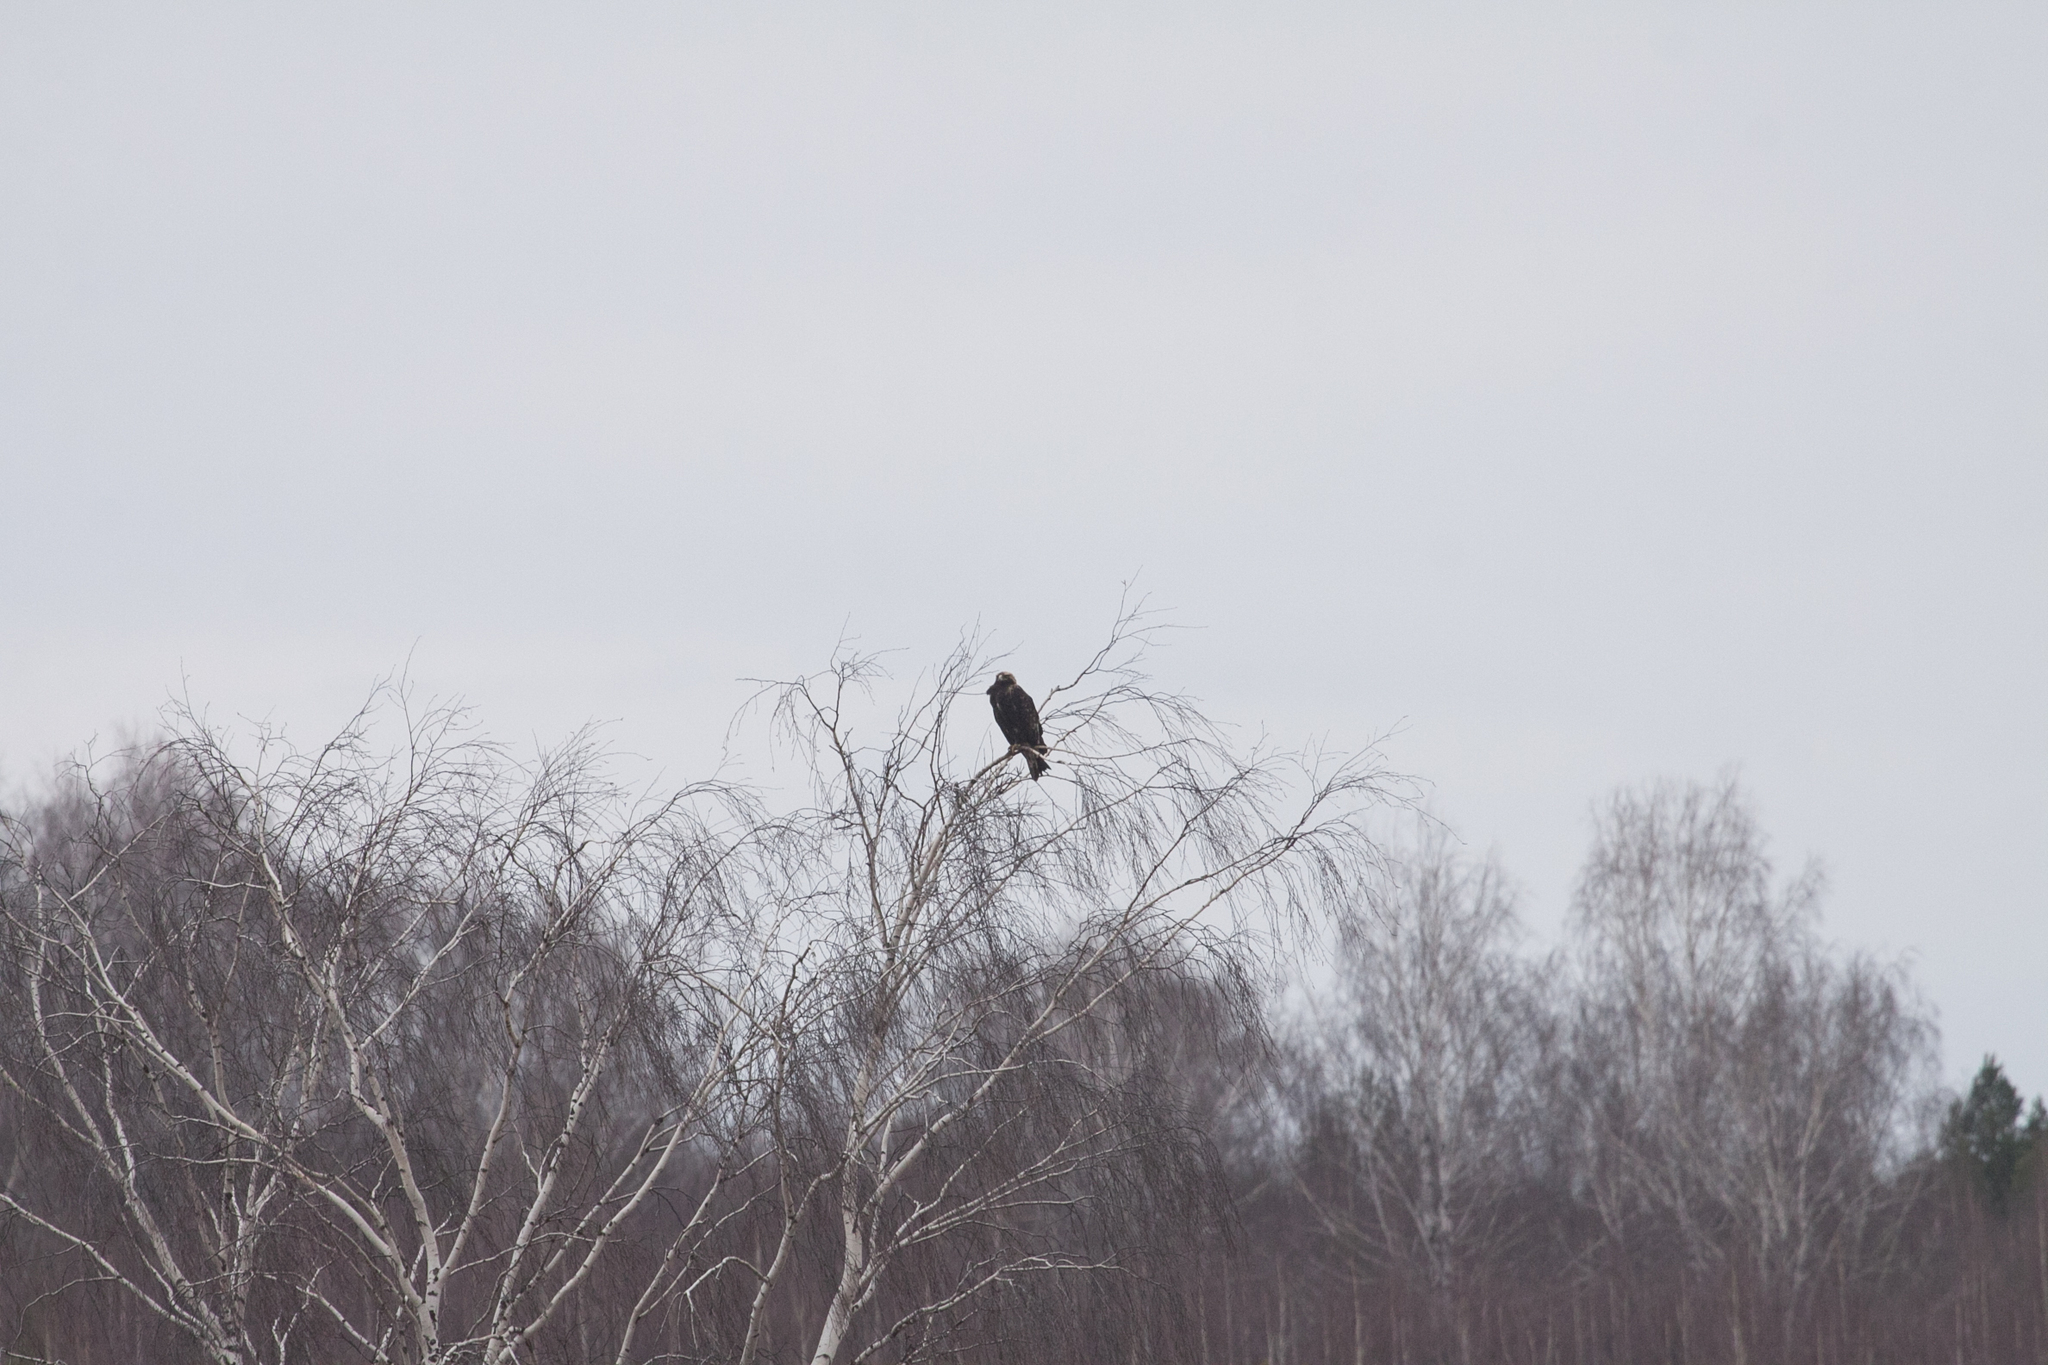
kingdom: Animalia
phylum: Chordata
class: Aves
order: Accipitriformes
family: Accipitridae
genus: Aquila
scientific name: Aquila heliaca
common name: Eastern imperial eagle
